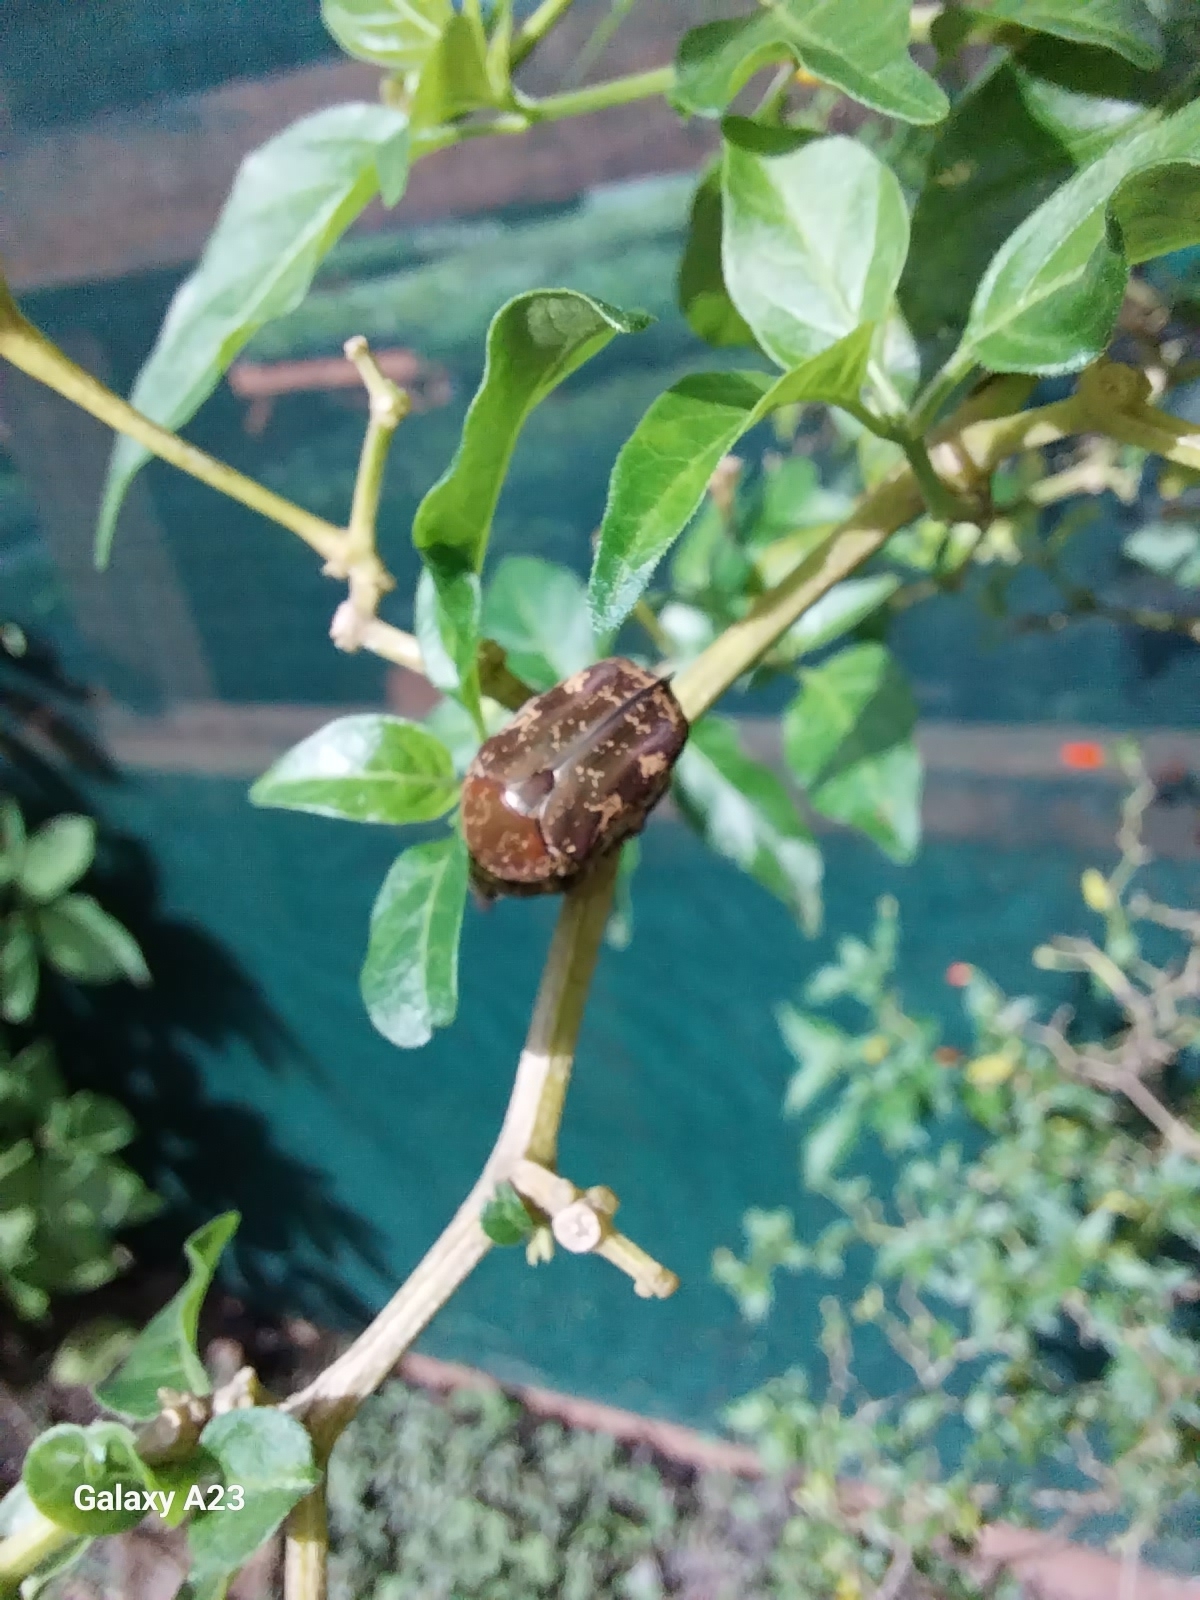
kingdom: Animalia
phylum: Arthropoda
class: Insecta
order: Coleoptera
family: Scarabaeidae
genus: Protaetia
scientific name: Protaetia fusca
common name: Mango flower beetle
